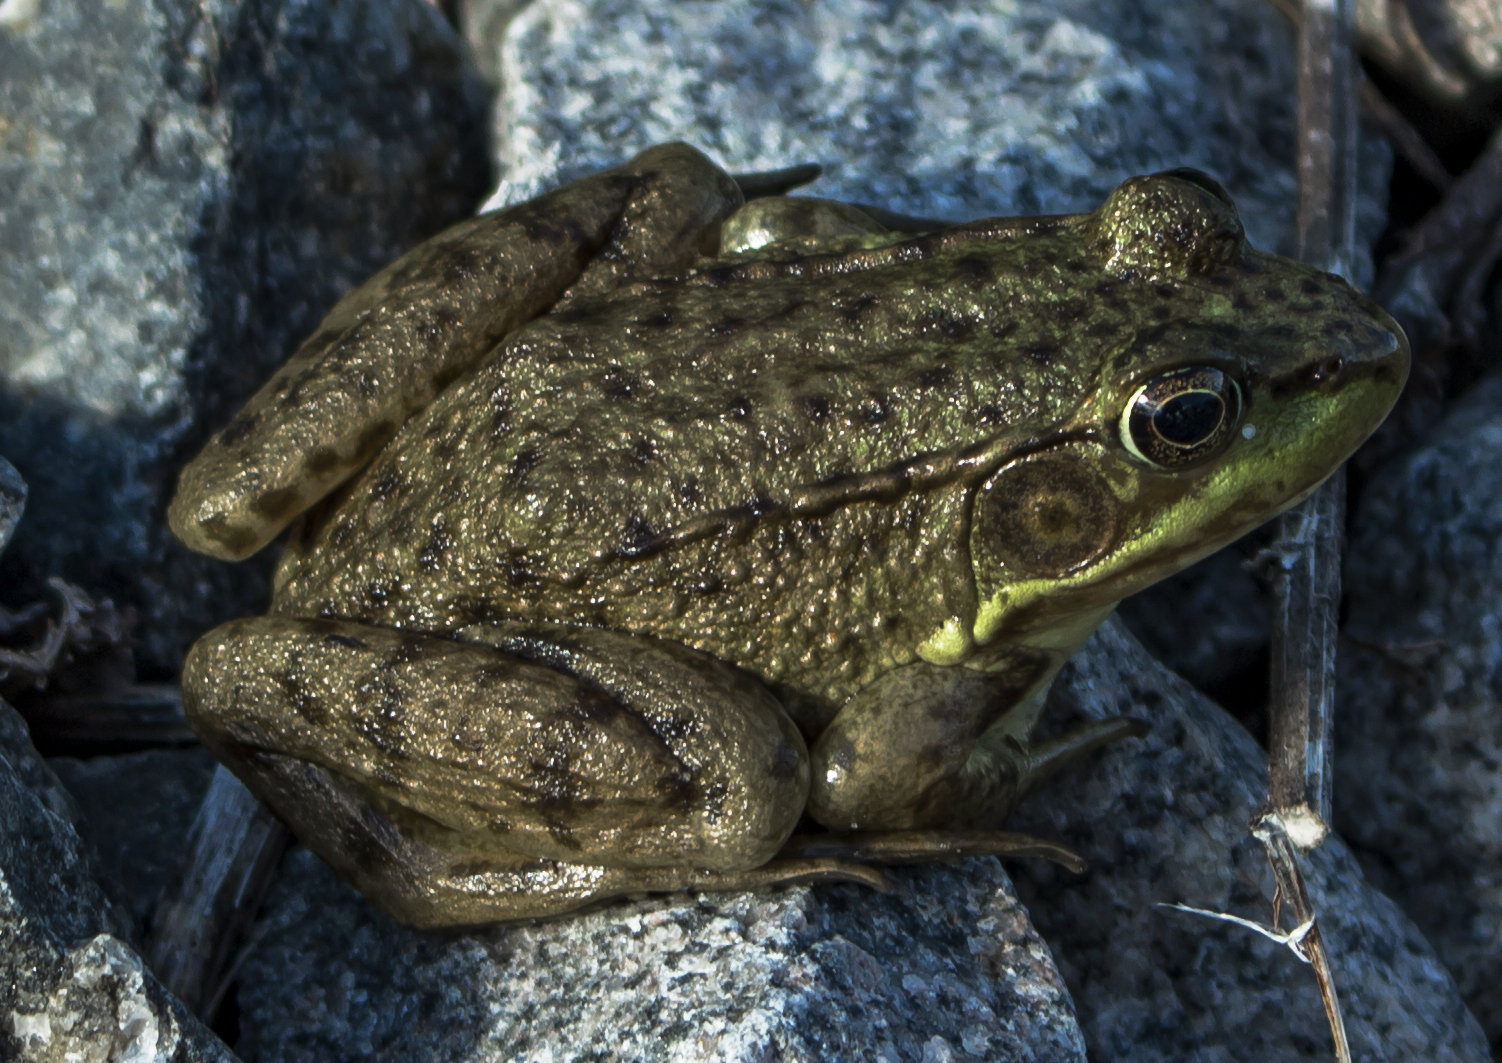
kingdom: Animalia
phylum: Chordata
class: Amphibia
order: Anura
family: Ranidae
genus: Lithobates
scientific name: Lithobates clamitans
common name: Green frog
